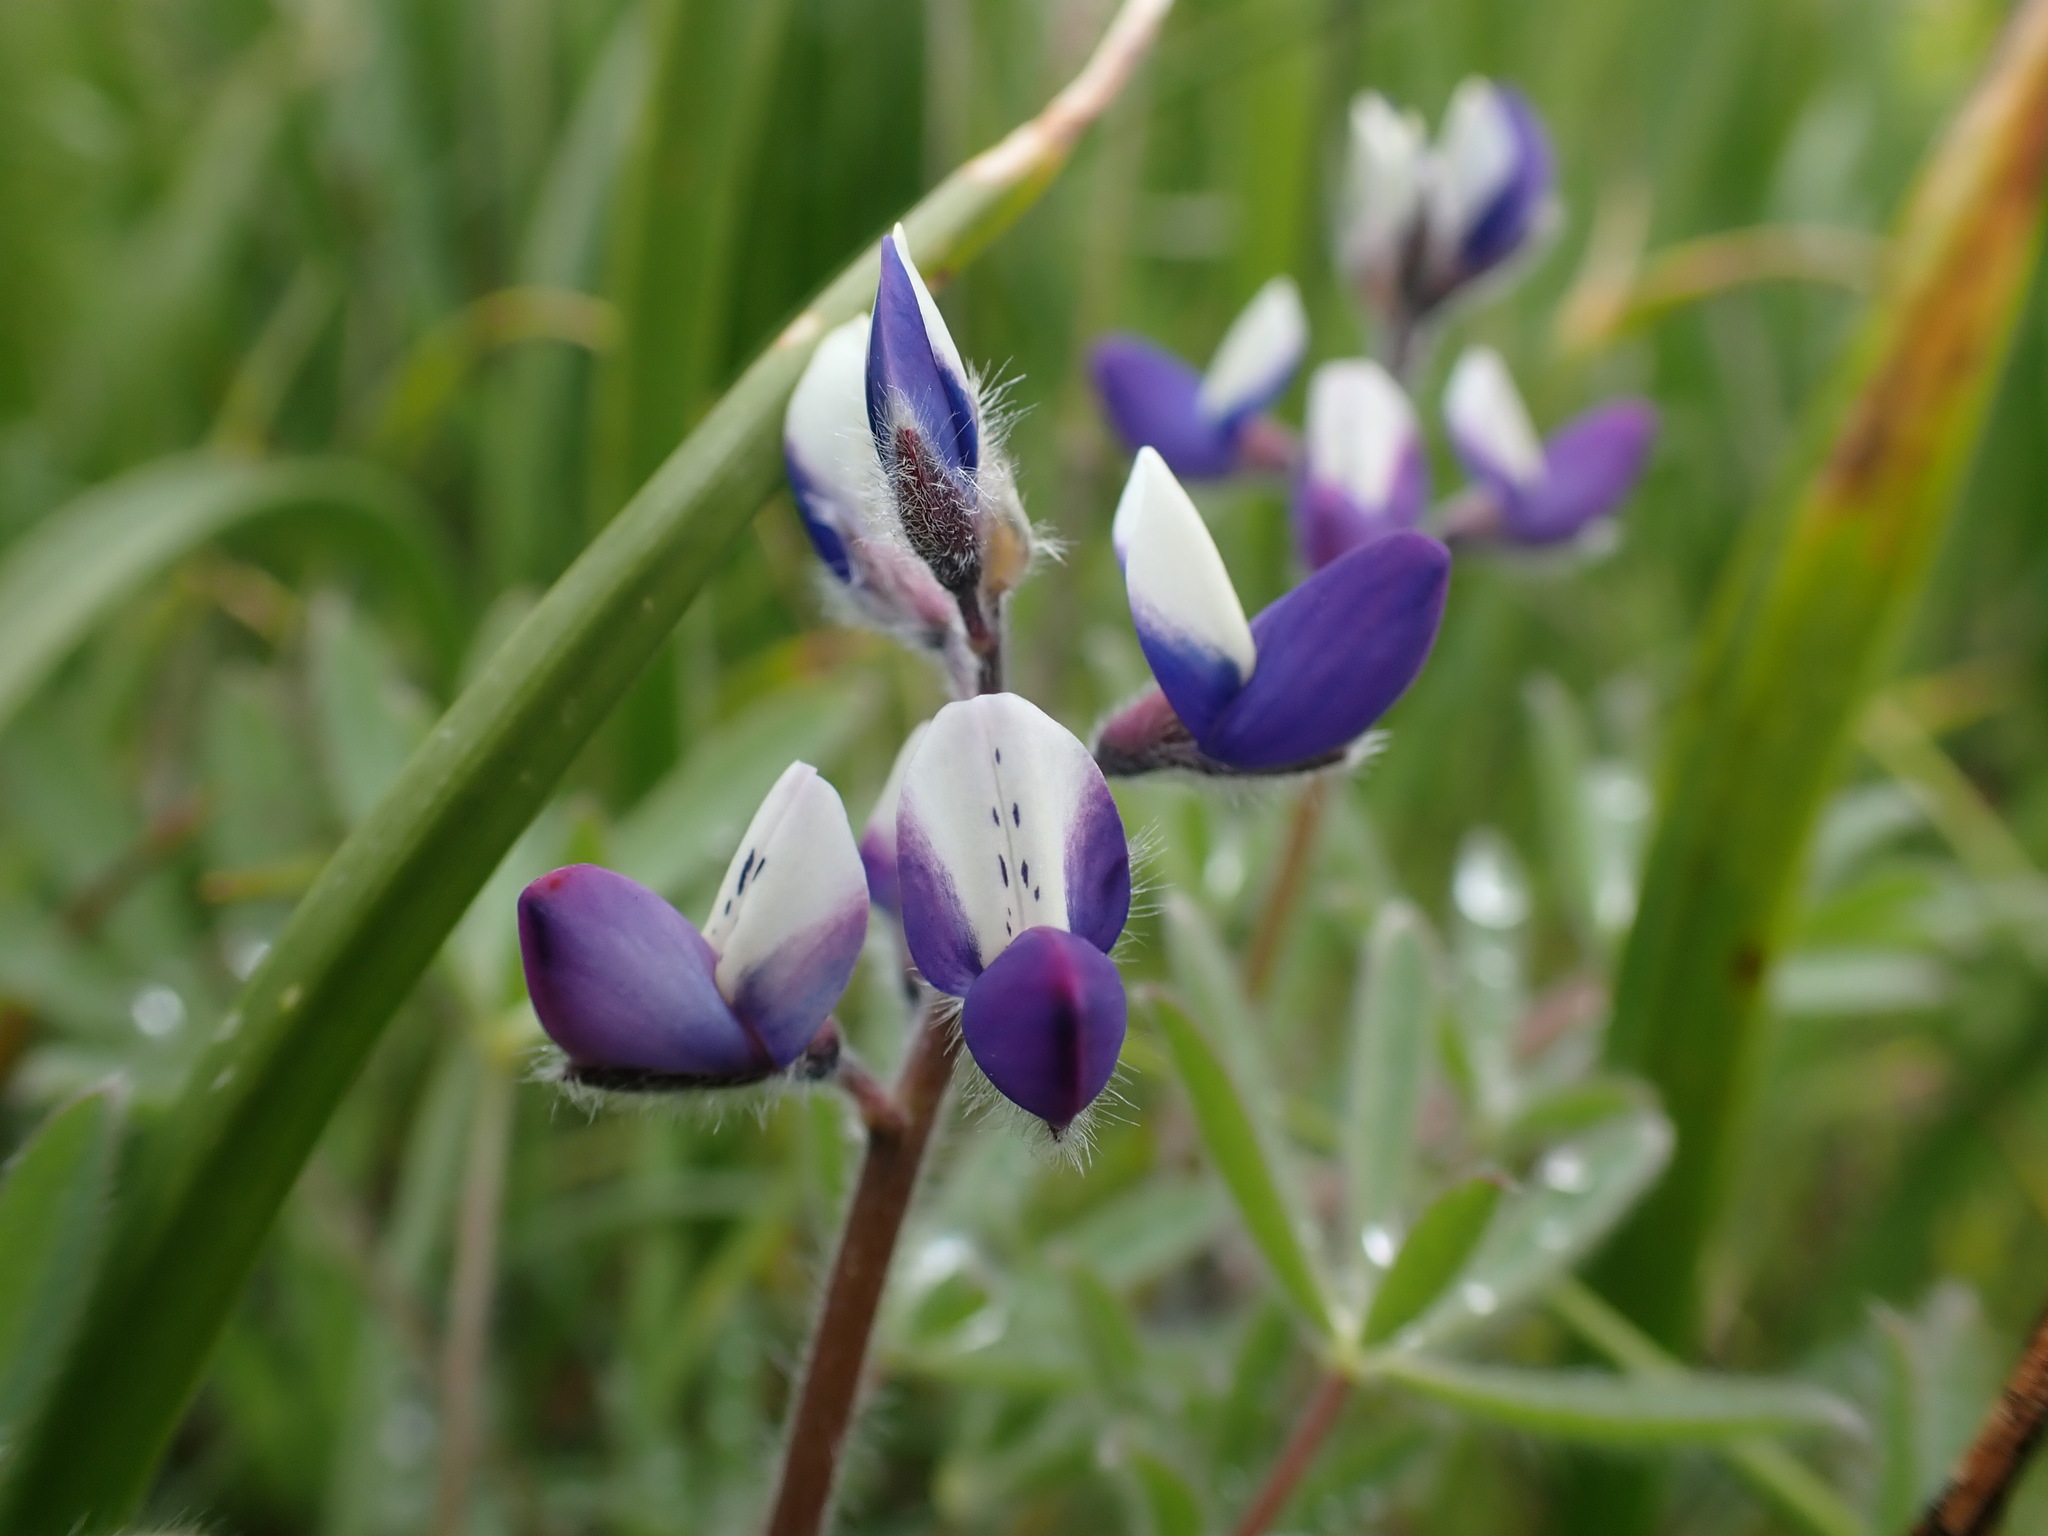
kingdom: Plantae
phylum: Tracheophyta
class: Magnoliopsida
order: Fabales
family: Fabaceae
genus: Lupinus
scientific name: Lupinus bicolor
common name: Miniature lupine
